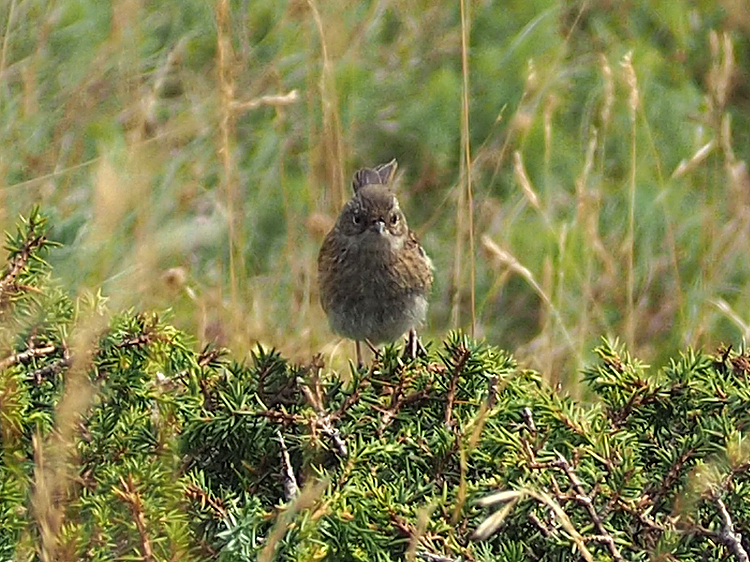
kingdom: Animalia
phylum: Chordata
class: Aves
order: Passeriformes
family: Prunellidae
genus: Prunella
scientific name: Prunella modularis
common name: Dunnock
